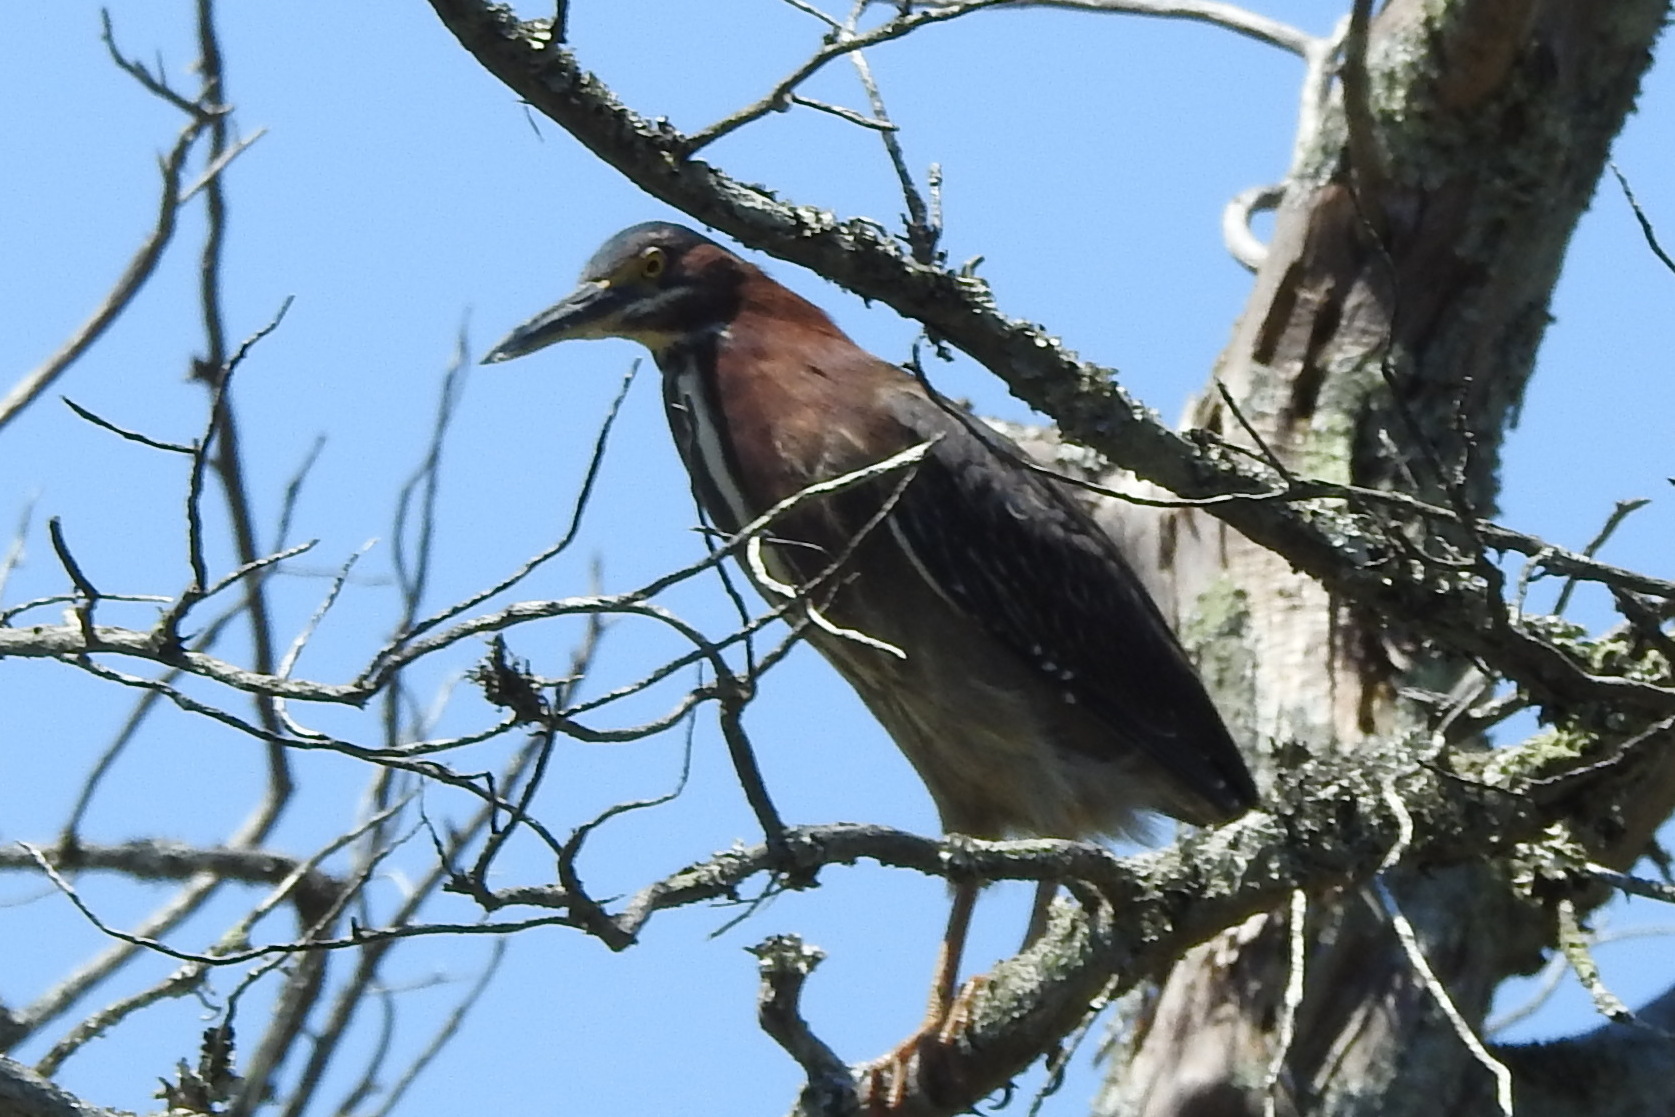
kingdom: Animalia
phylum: Chordata
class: Aves
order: Pelecaniformes
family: Ardeidae
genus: Butorides
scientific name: Butorides virescens
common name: Green heron
